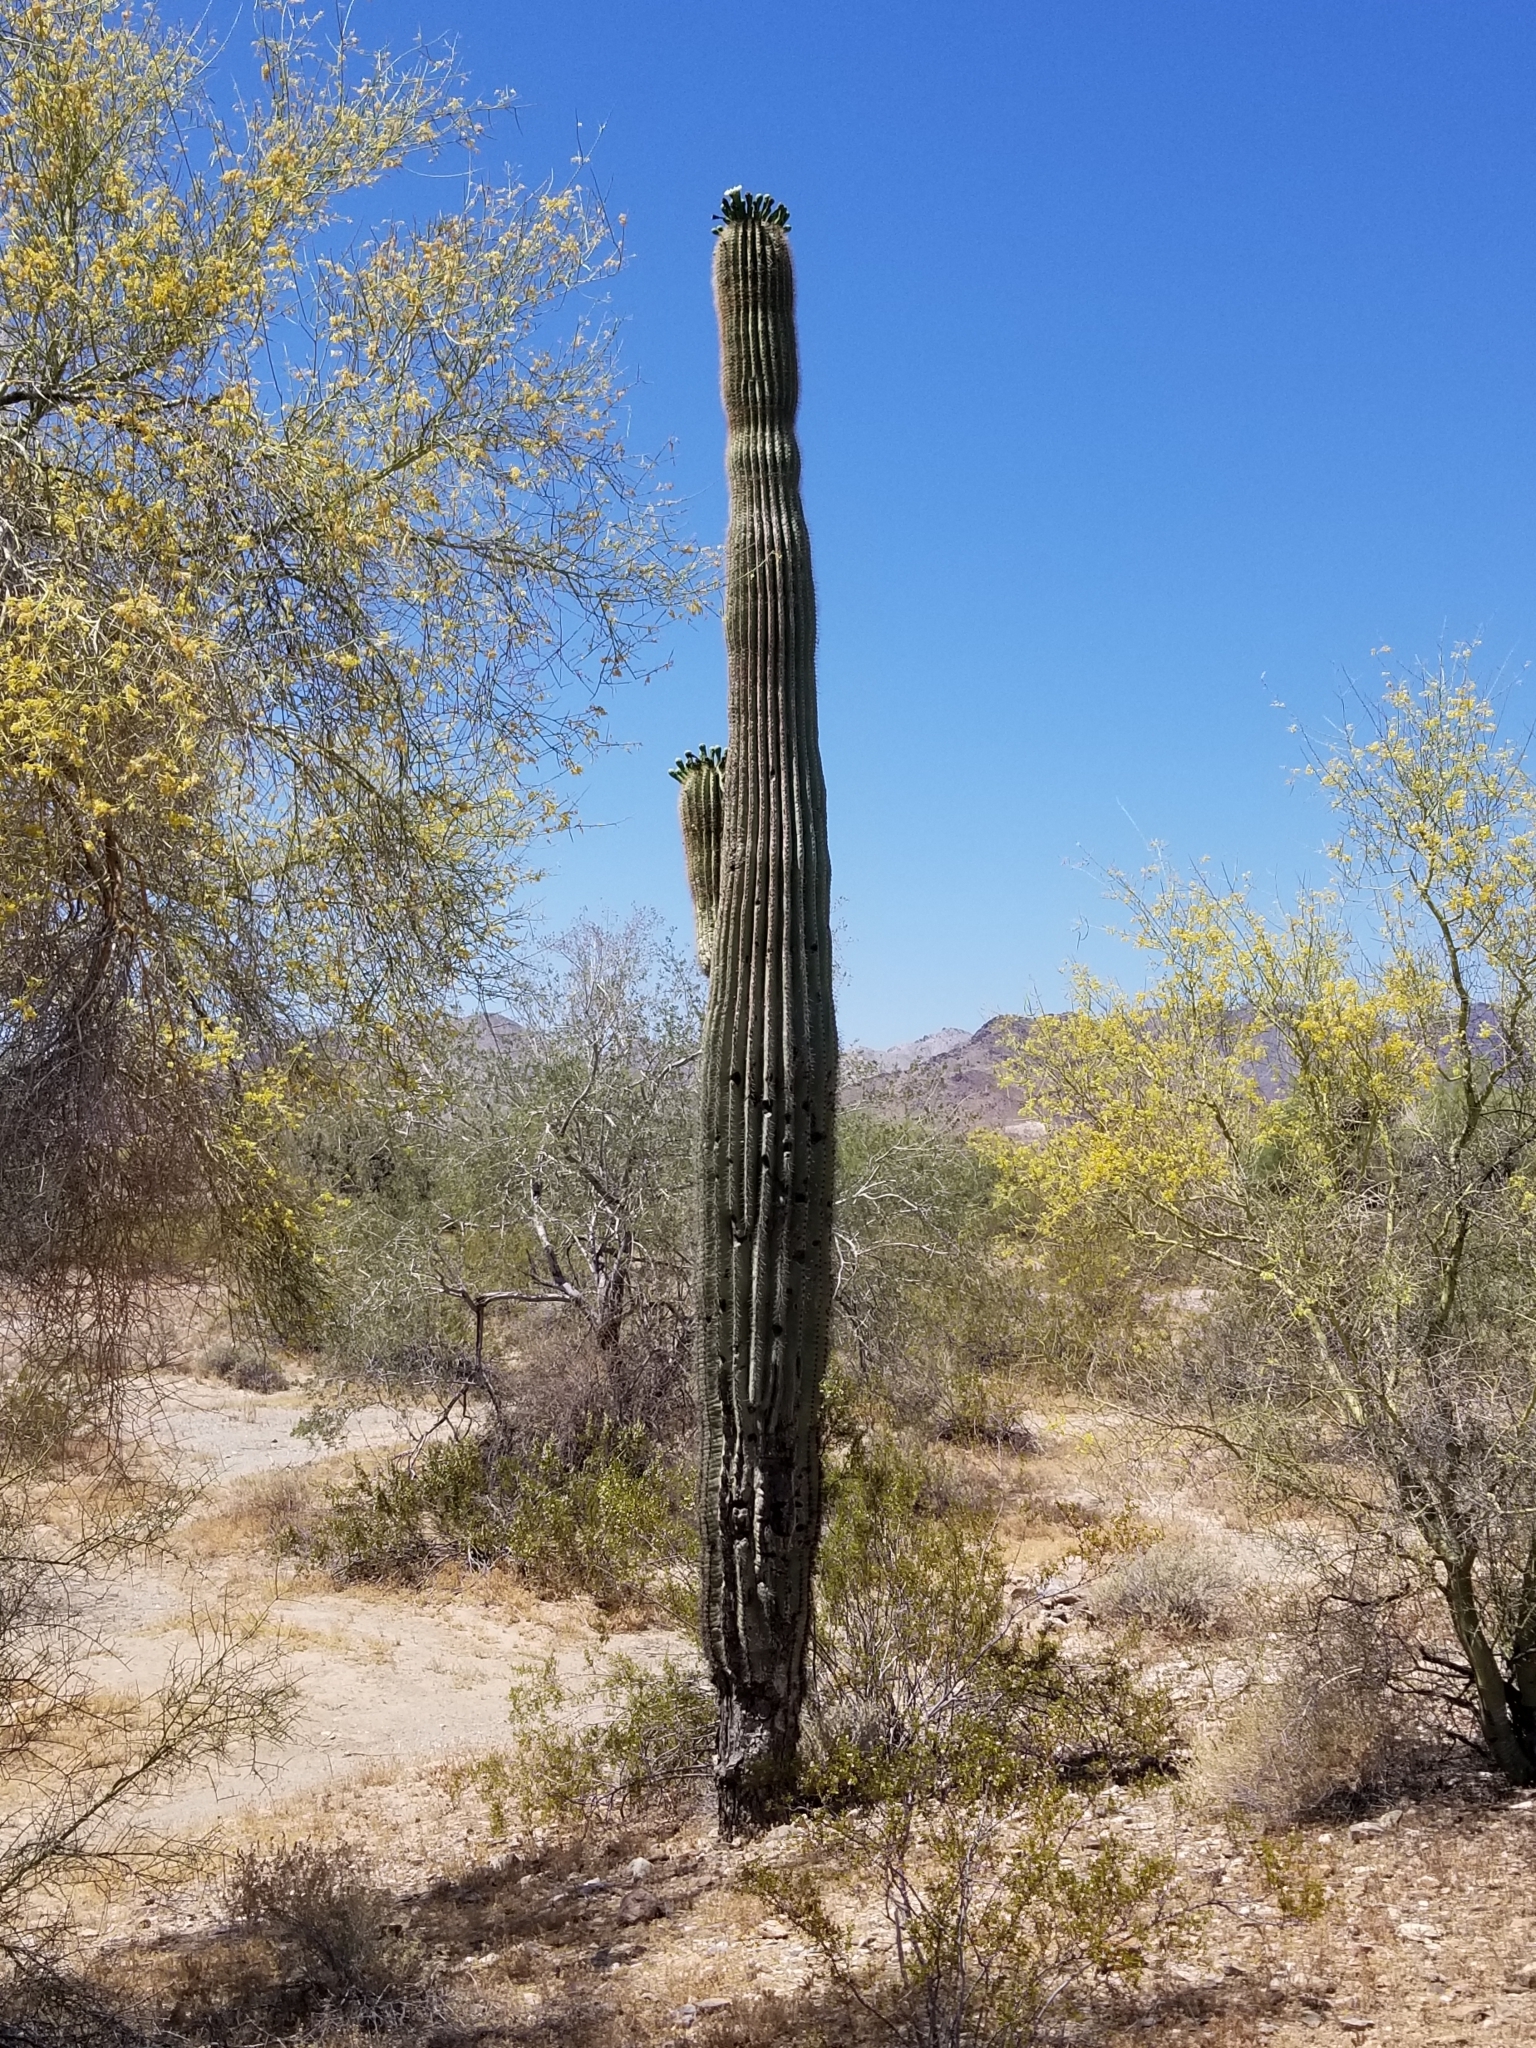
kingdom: Plantae
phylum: Tracheophyta
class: Magnoliopsida
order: Caryophyllales
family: Cactaceae
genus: Carnegiea
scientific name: Carnegiea gigantea
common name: Saguaro
